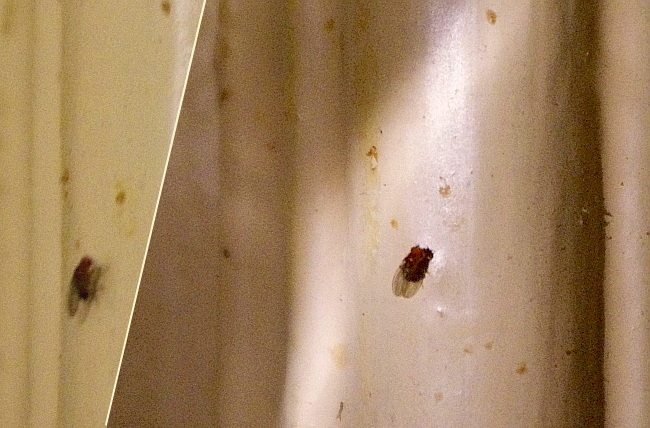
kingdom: Animalia
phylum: Arthropoda
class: Insecta
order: Diptera
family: Drosophilidae
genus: Drosophila
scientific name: Drosophila
